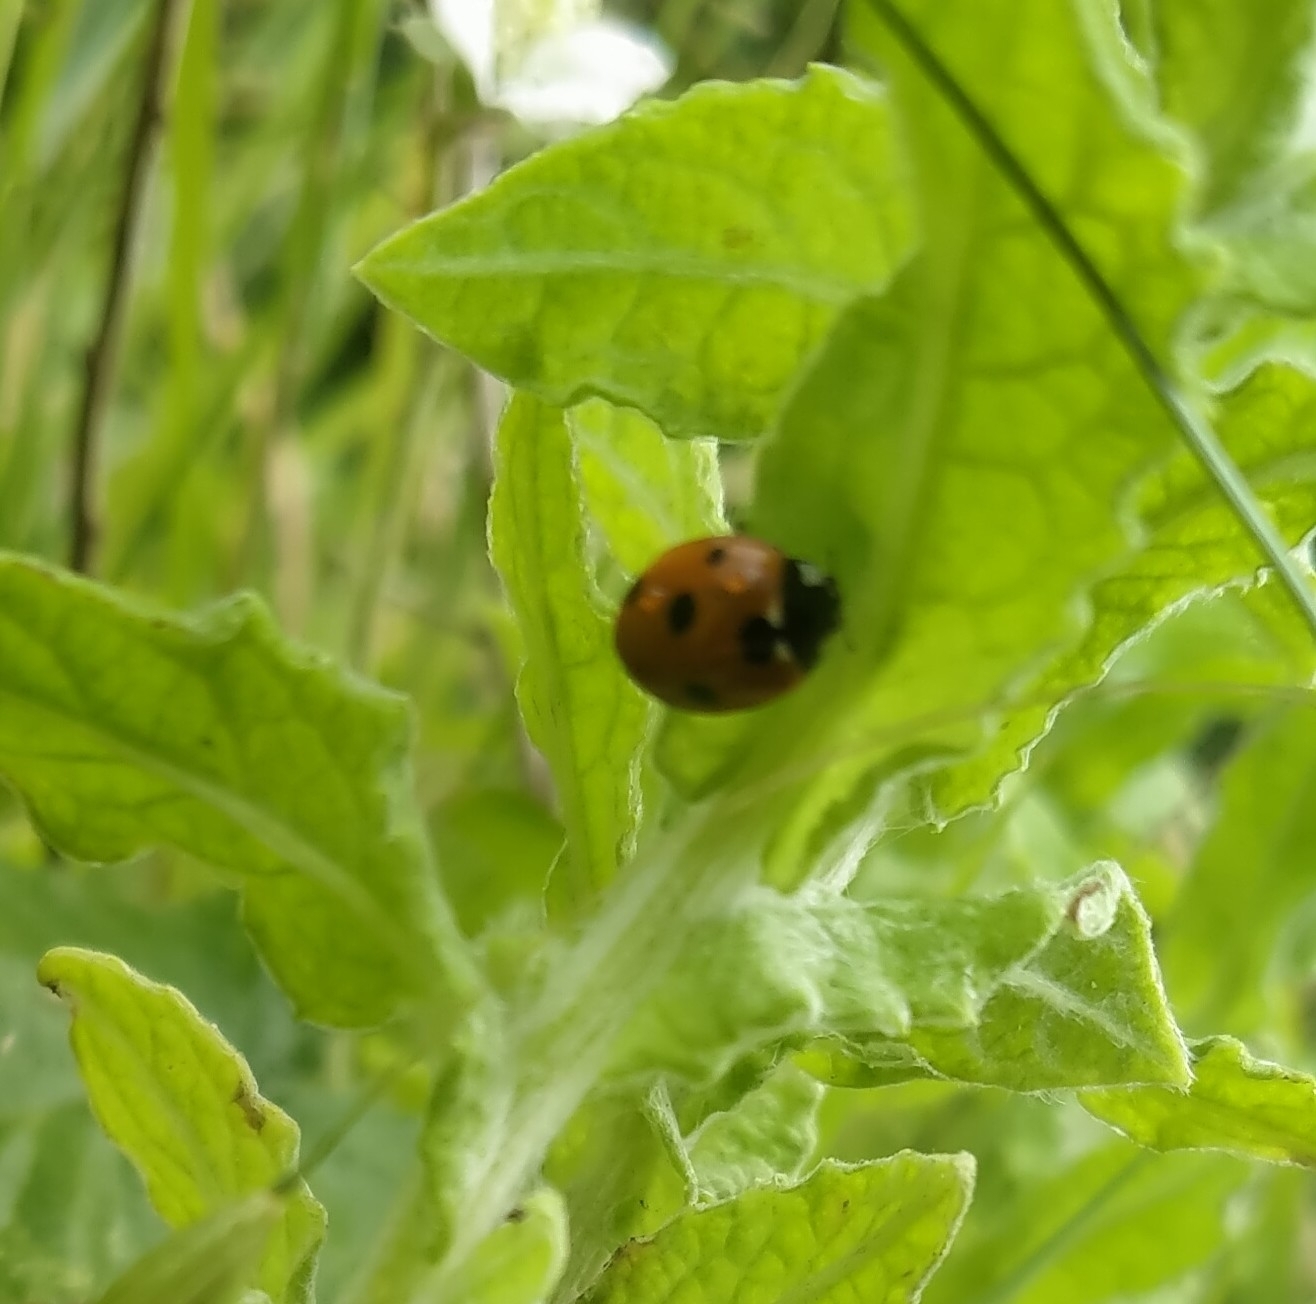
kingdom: Animalia
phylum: Arthropoda
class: Insecta
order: Coleoptera
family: Coccinellidae
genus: Coccinella
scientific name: Coccinella septempunctata
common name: Sevenspotted lady beetle
